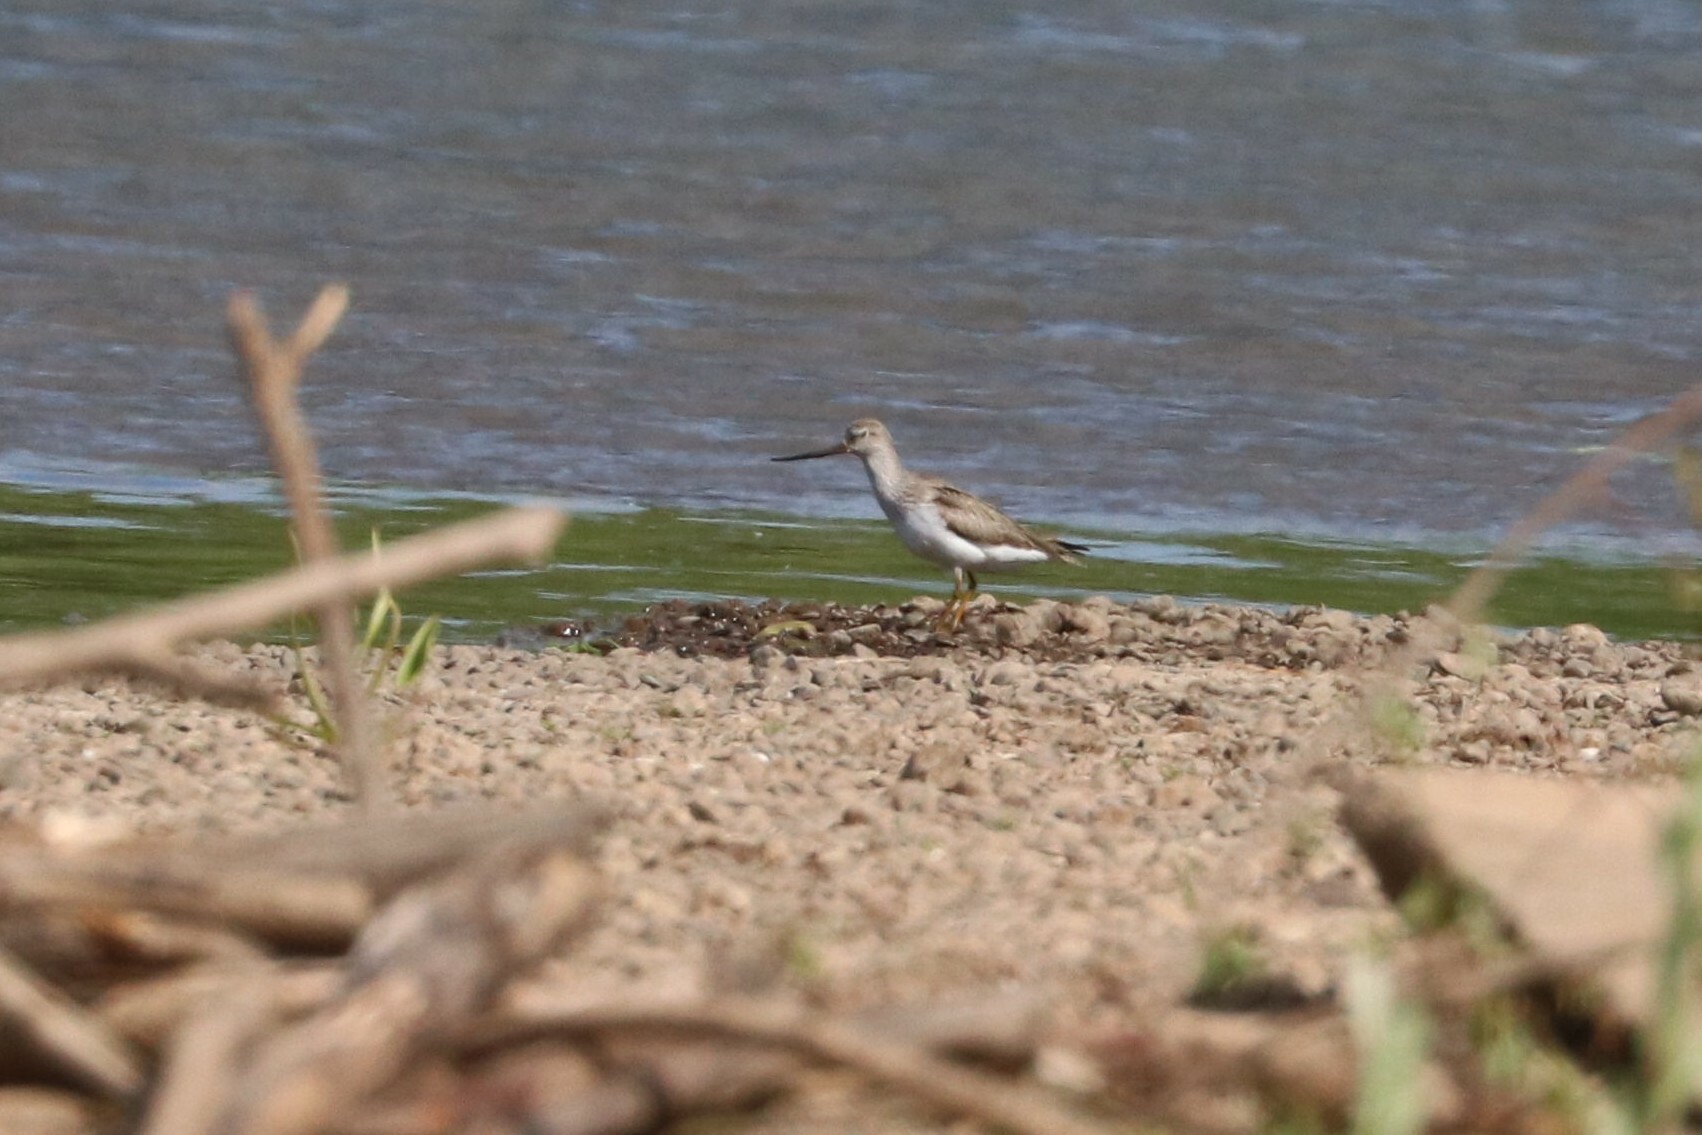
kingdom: Animalia
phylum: Chordata
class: Aves
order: Charadriiformes
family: Scolopacidae
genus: Xenus
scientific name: Xenus cinereus
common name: Terek sandpiper
